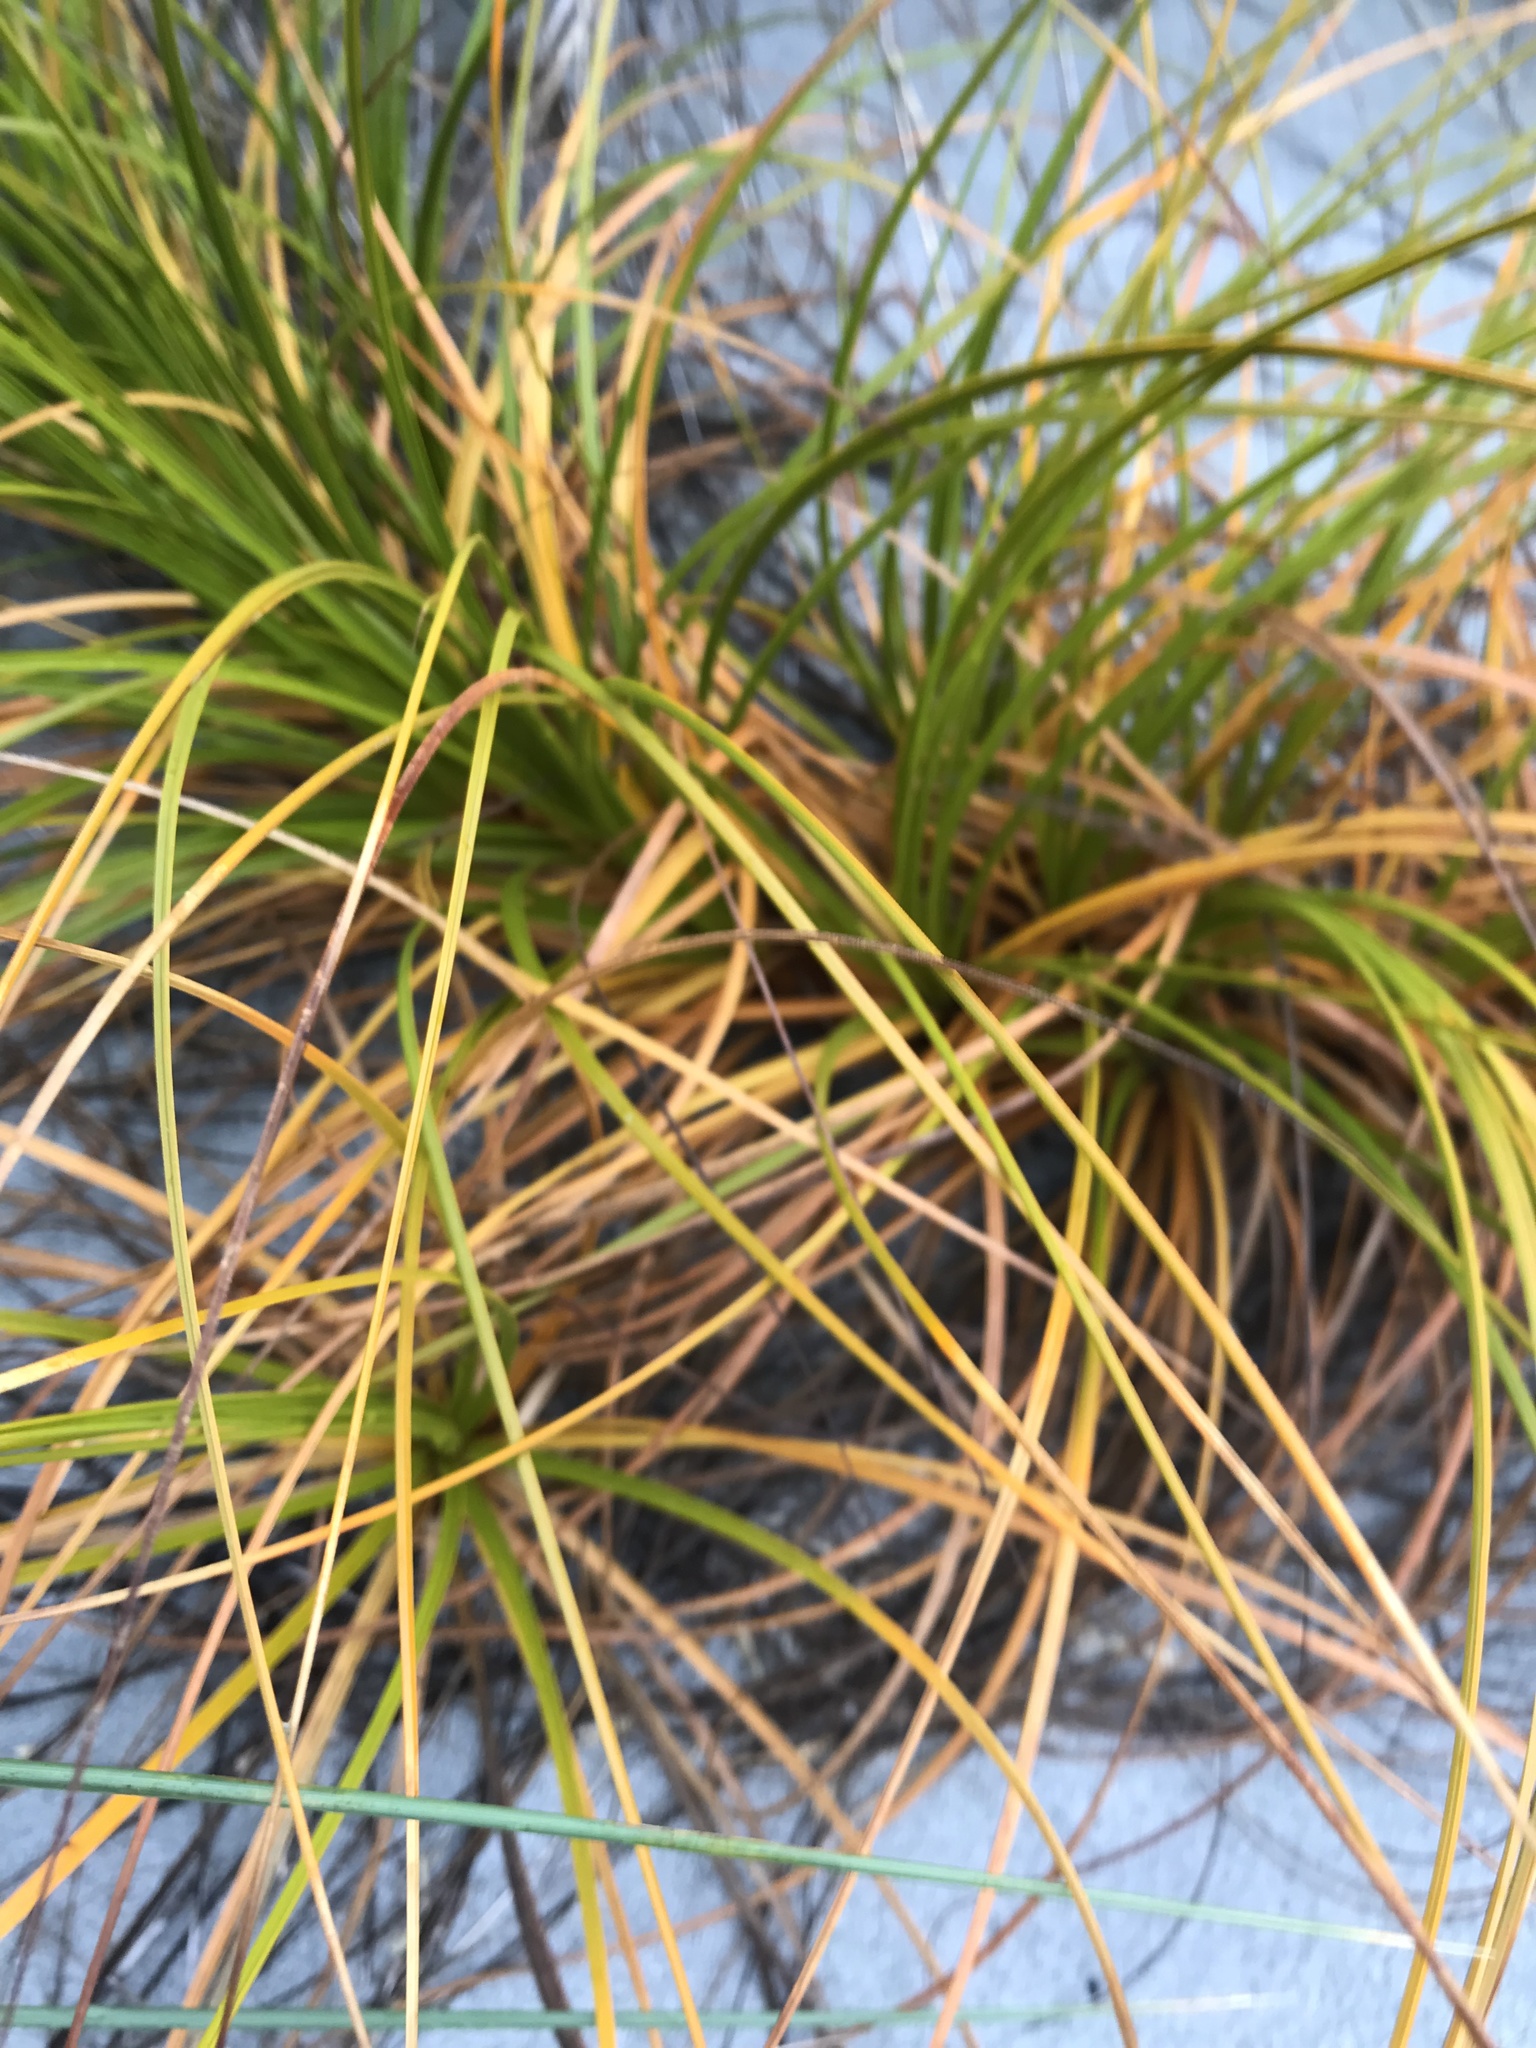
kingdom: Plantae
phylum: Tracheophyta
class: Liliopsida
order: Poales
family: Cyperaceae
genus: Ficinia
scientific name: Ficinia spiralis
